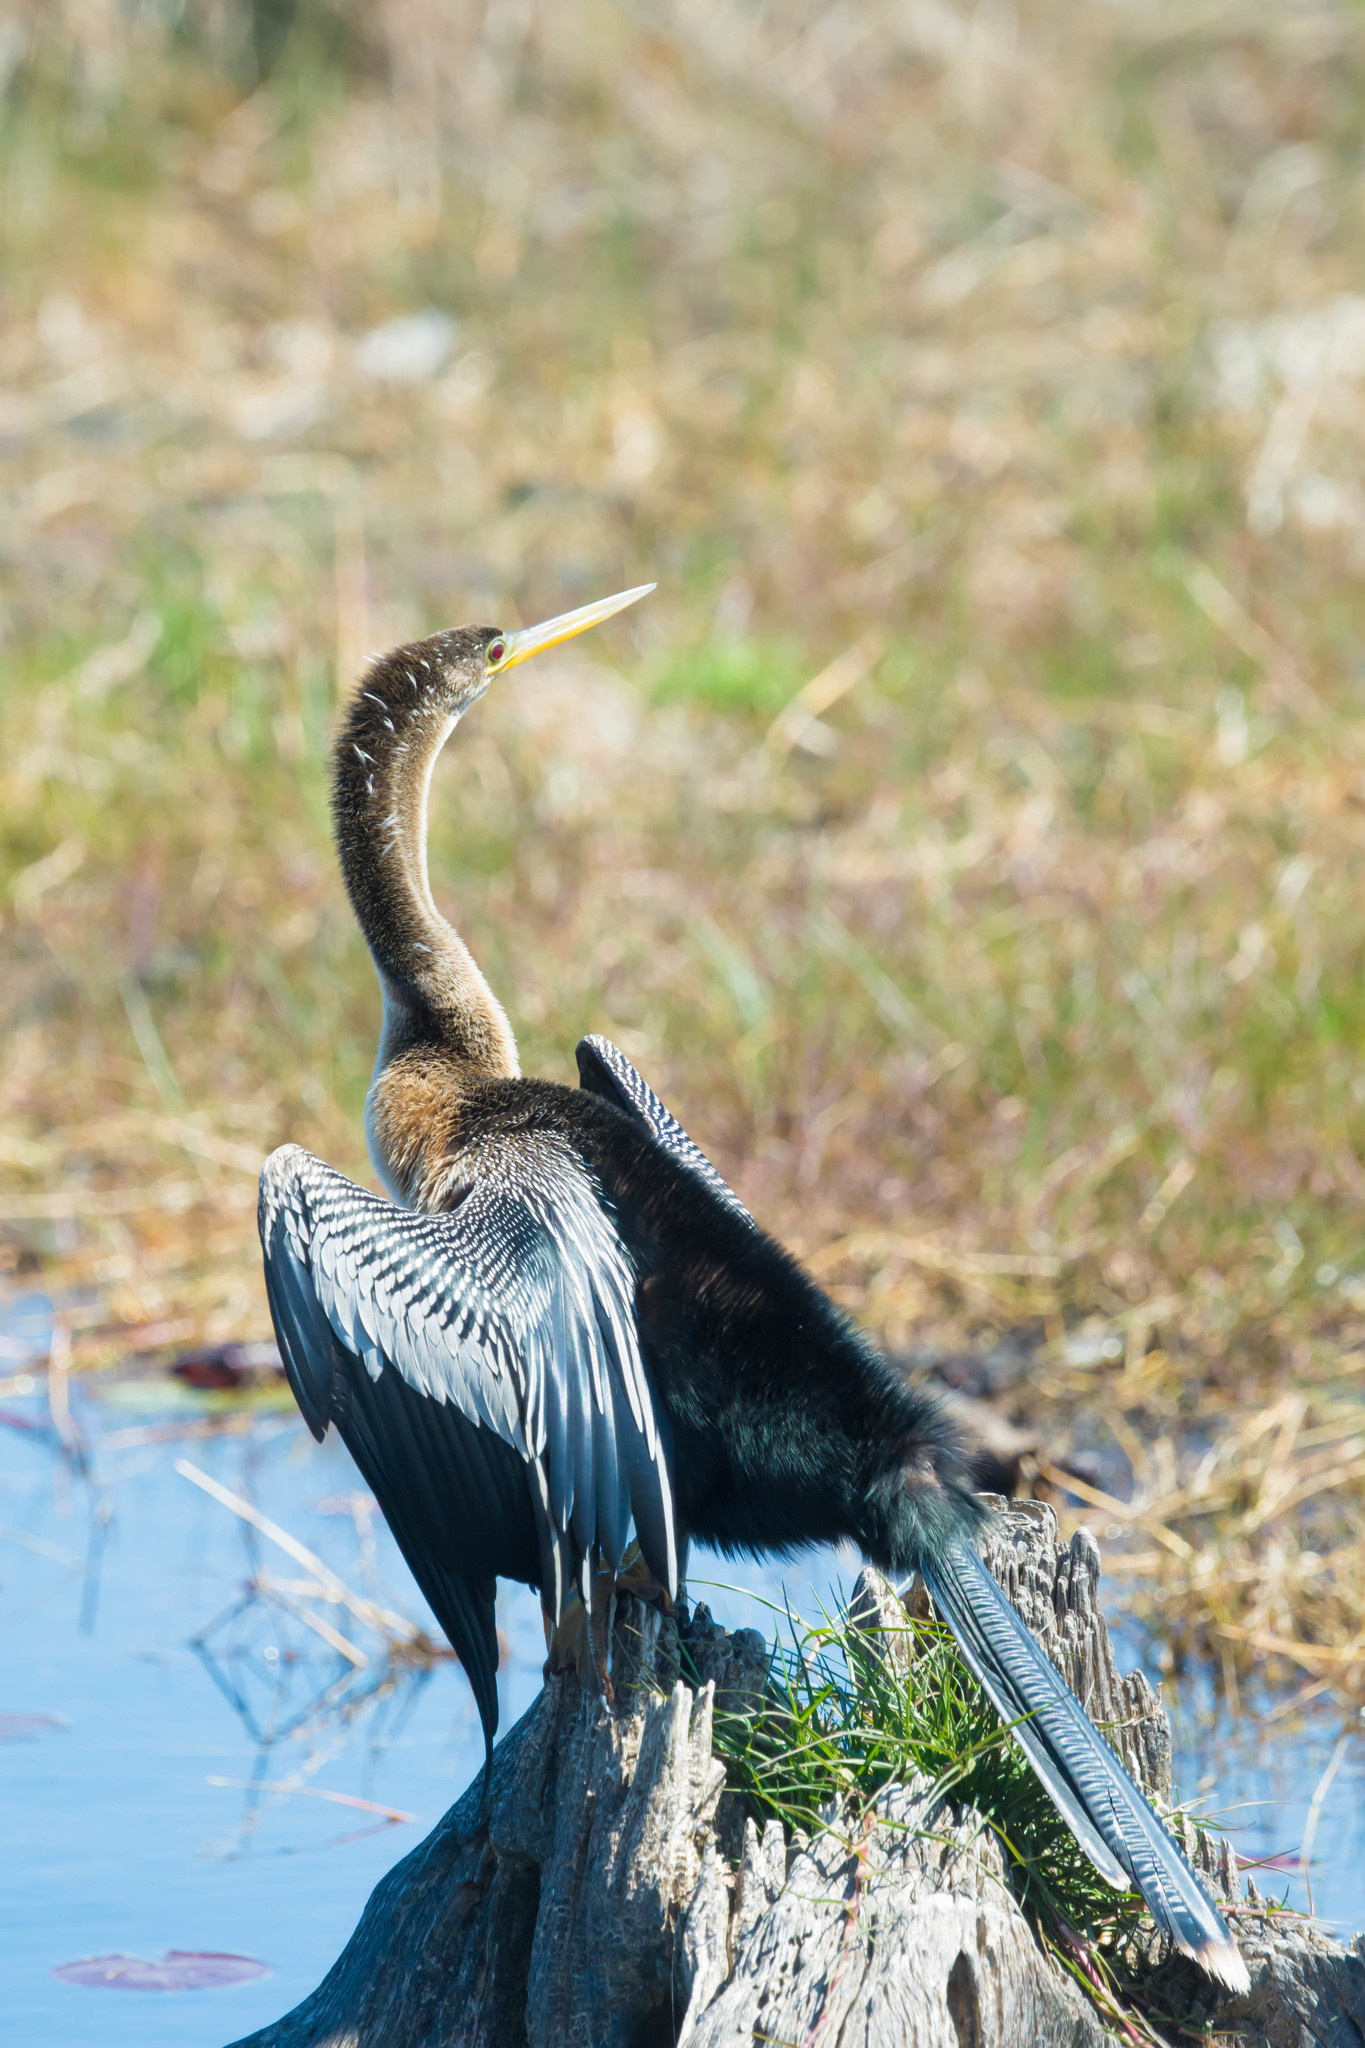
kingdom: Animalia
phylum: Chordata
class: Aves
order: Suliformes
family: Anhingidae
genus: Anhinga
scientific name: Anhinga anhinga
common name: Anhinga
